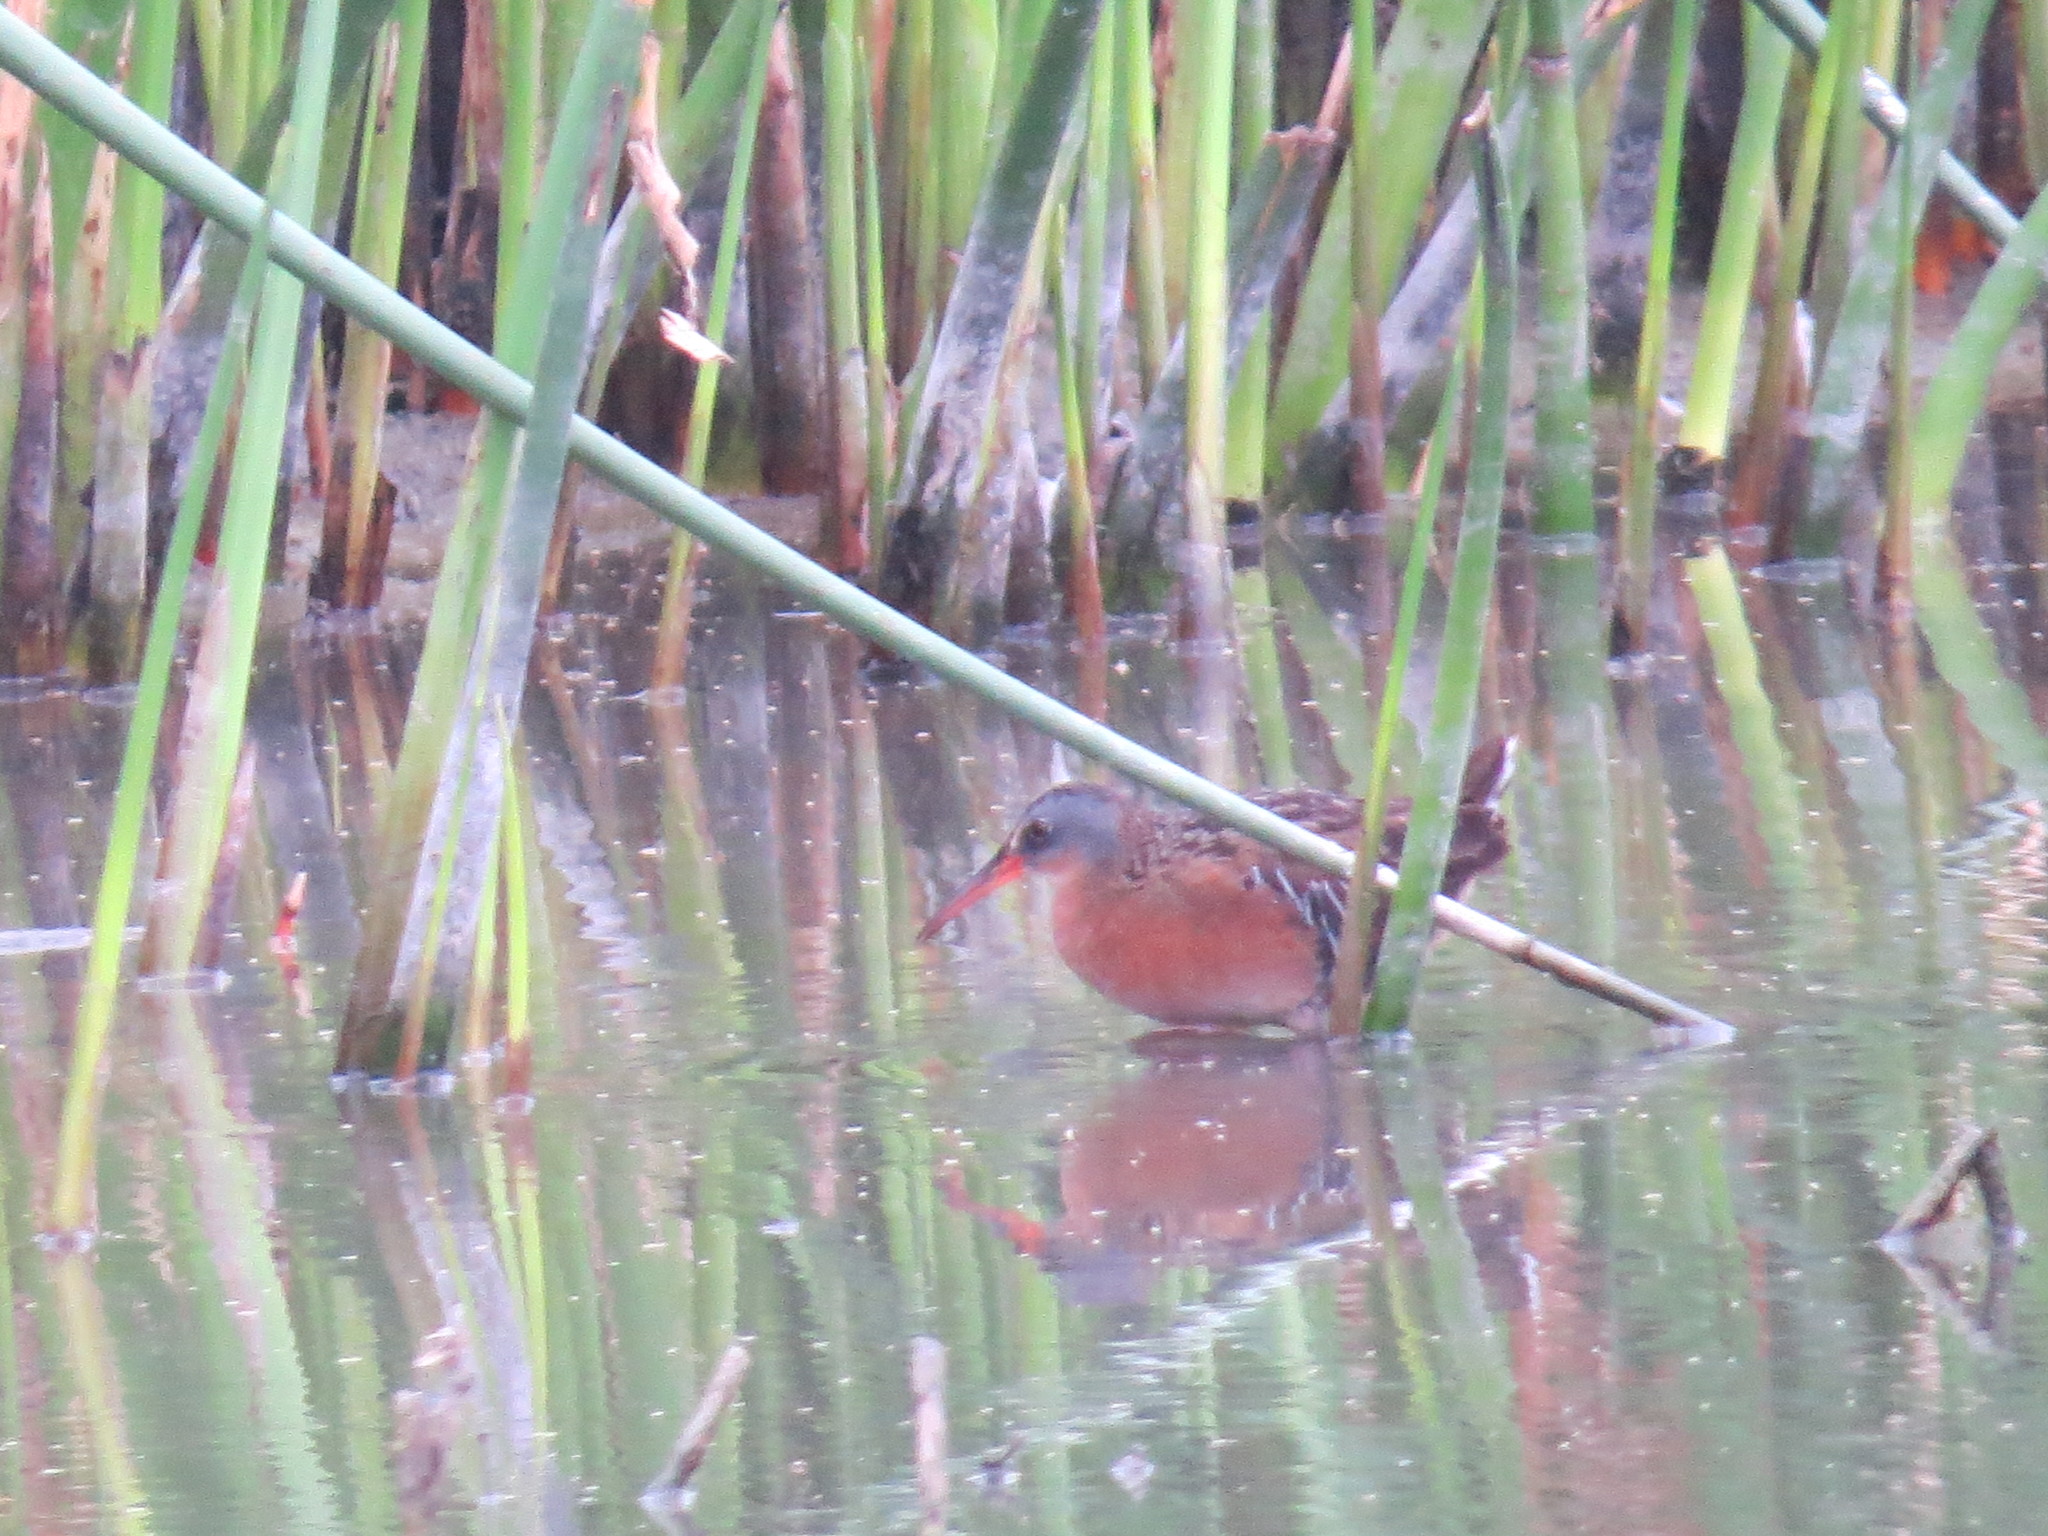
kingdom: Animalia
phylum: Chordata
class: Aves
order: Gruiformes
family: Rallidae
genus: Rallus
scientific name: Rallus limicola
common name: Virginia rail
